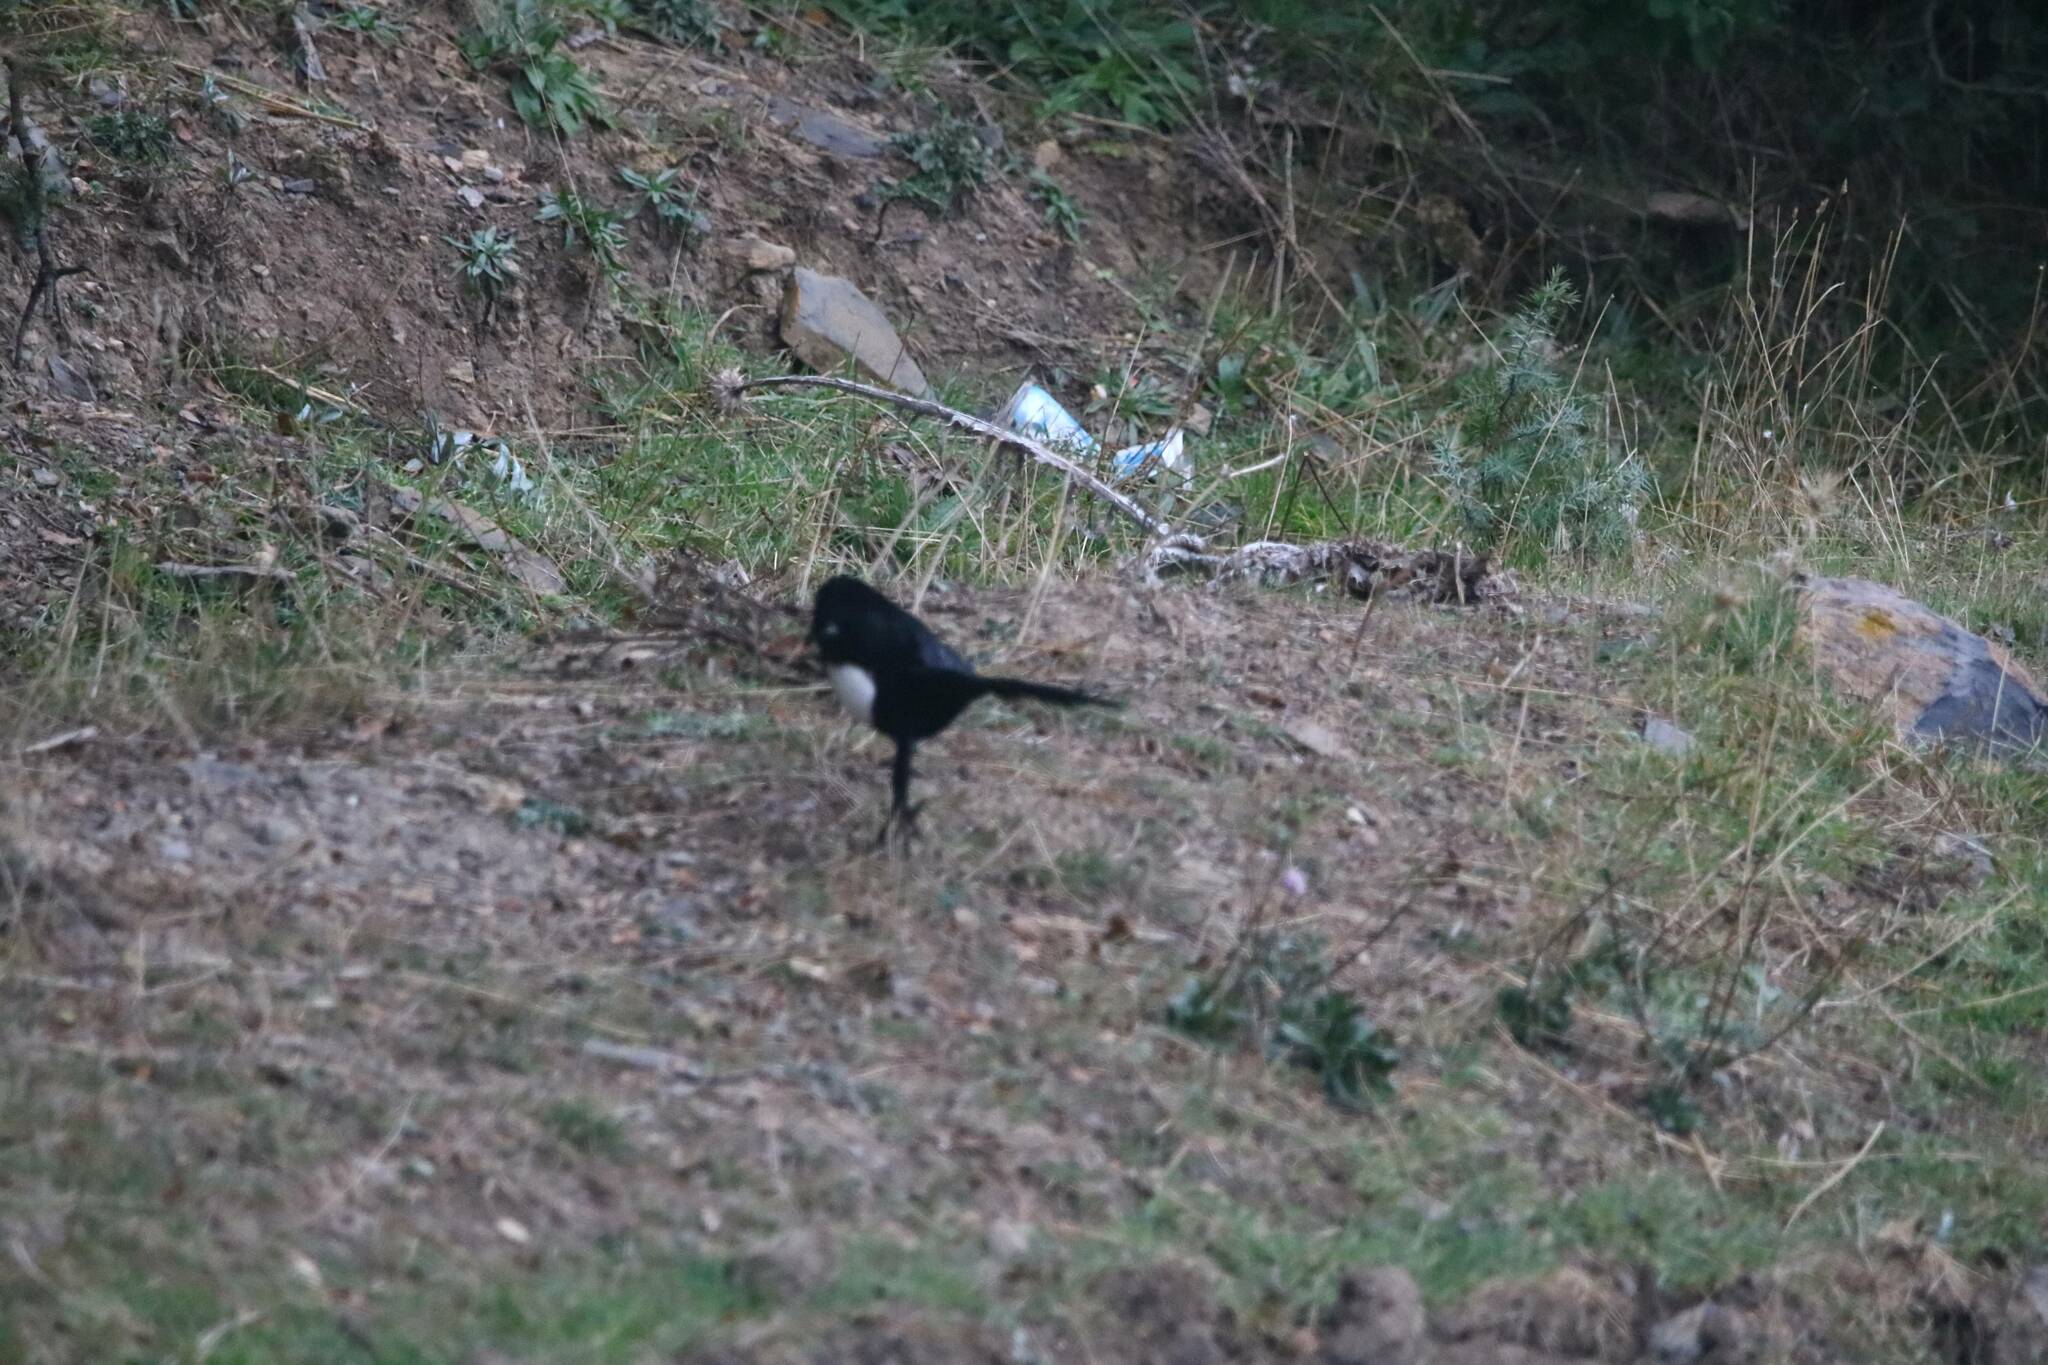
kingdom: Animalia
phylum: Chordata
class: Aves
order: Passeriformes
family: Corvidae
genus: Pica
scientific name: Pica mauritanica
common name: Maghreb magpie
